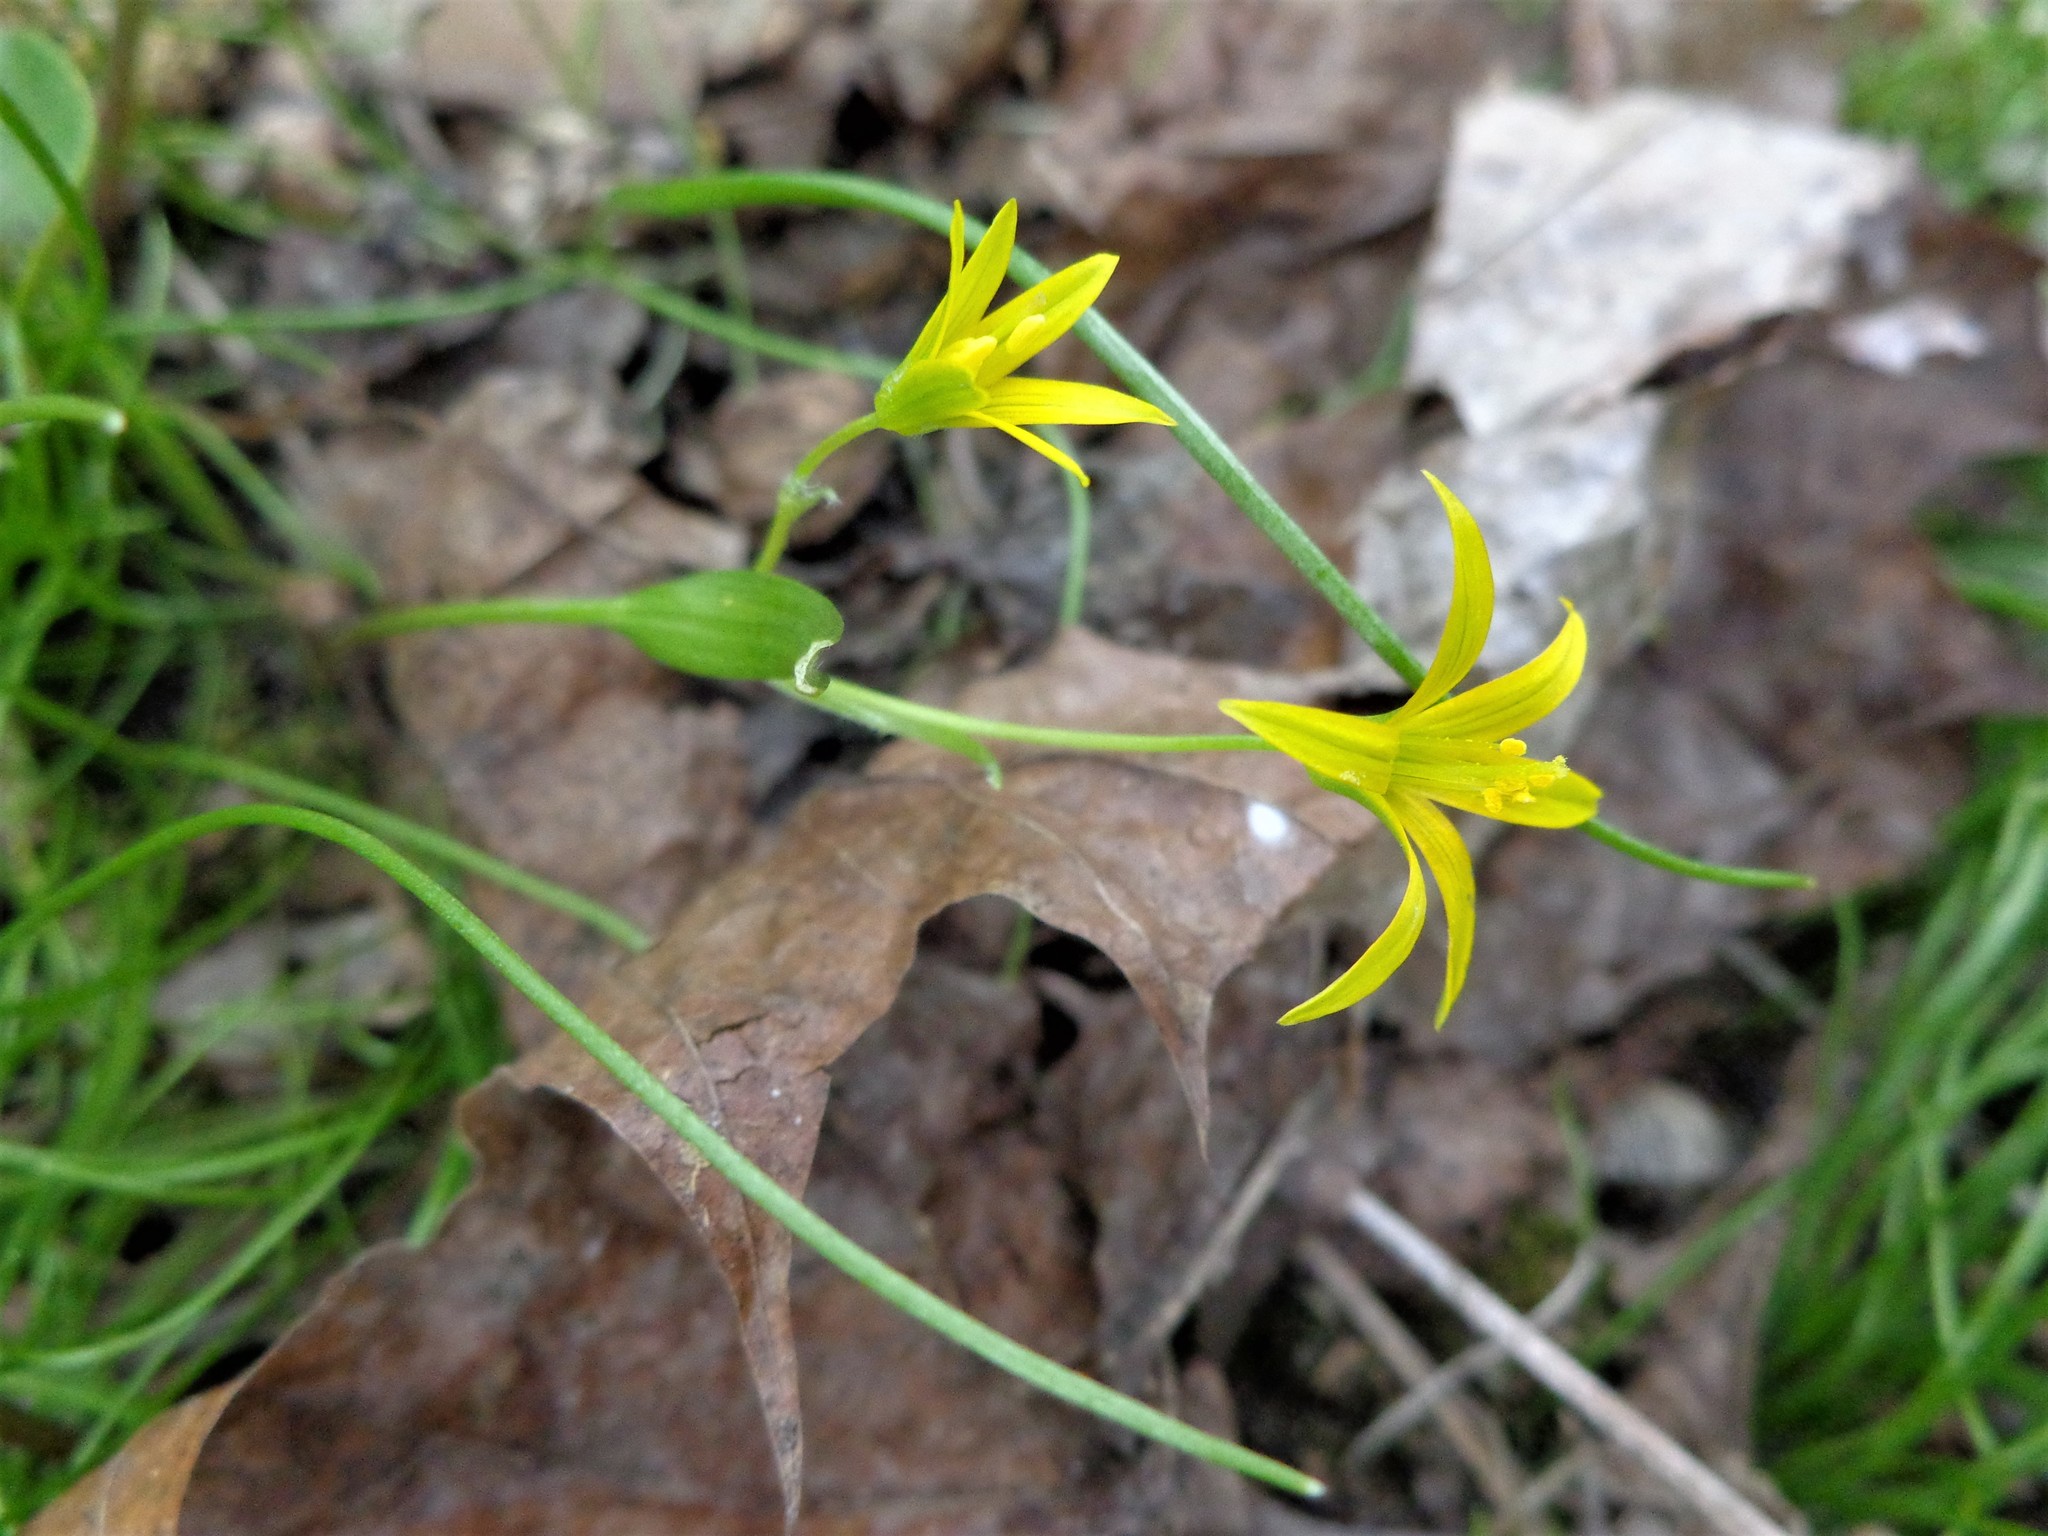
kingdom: Plantae
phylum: Tracheophyta
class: Liliopsida
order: Liliales
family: Liliaceae
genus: Gagea
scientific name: Gagea minima
